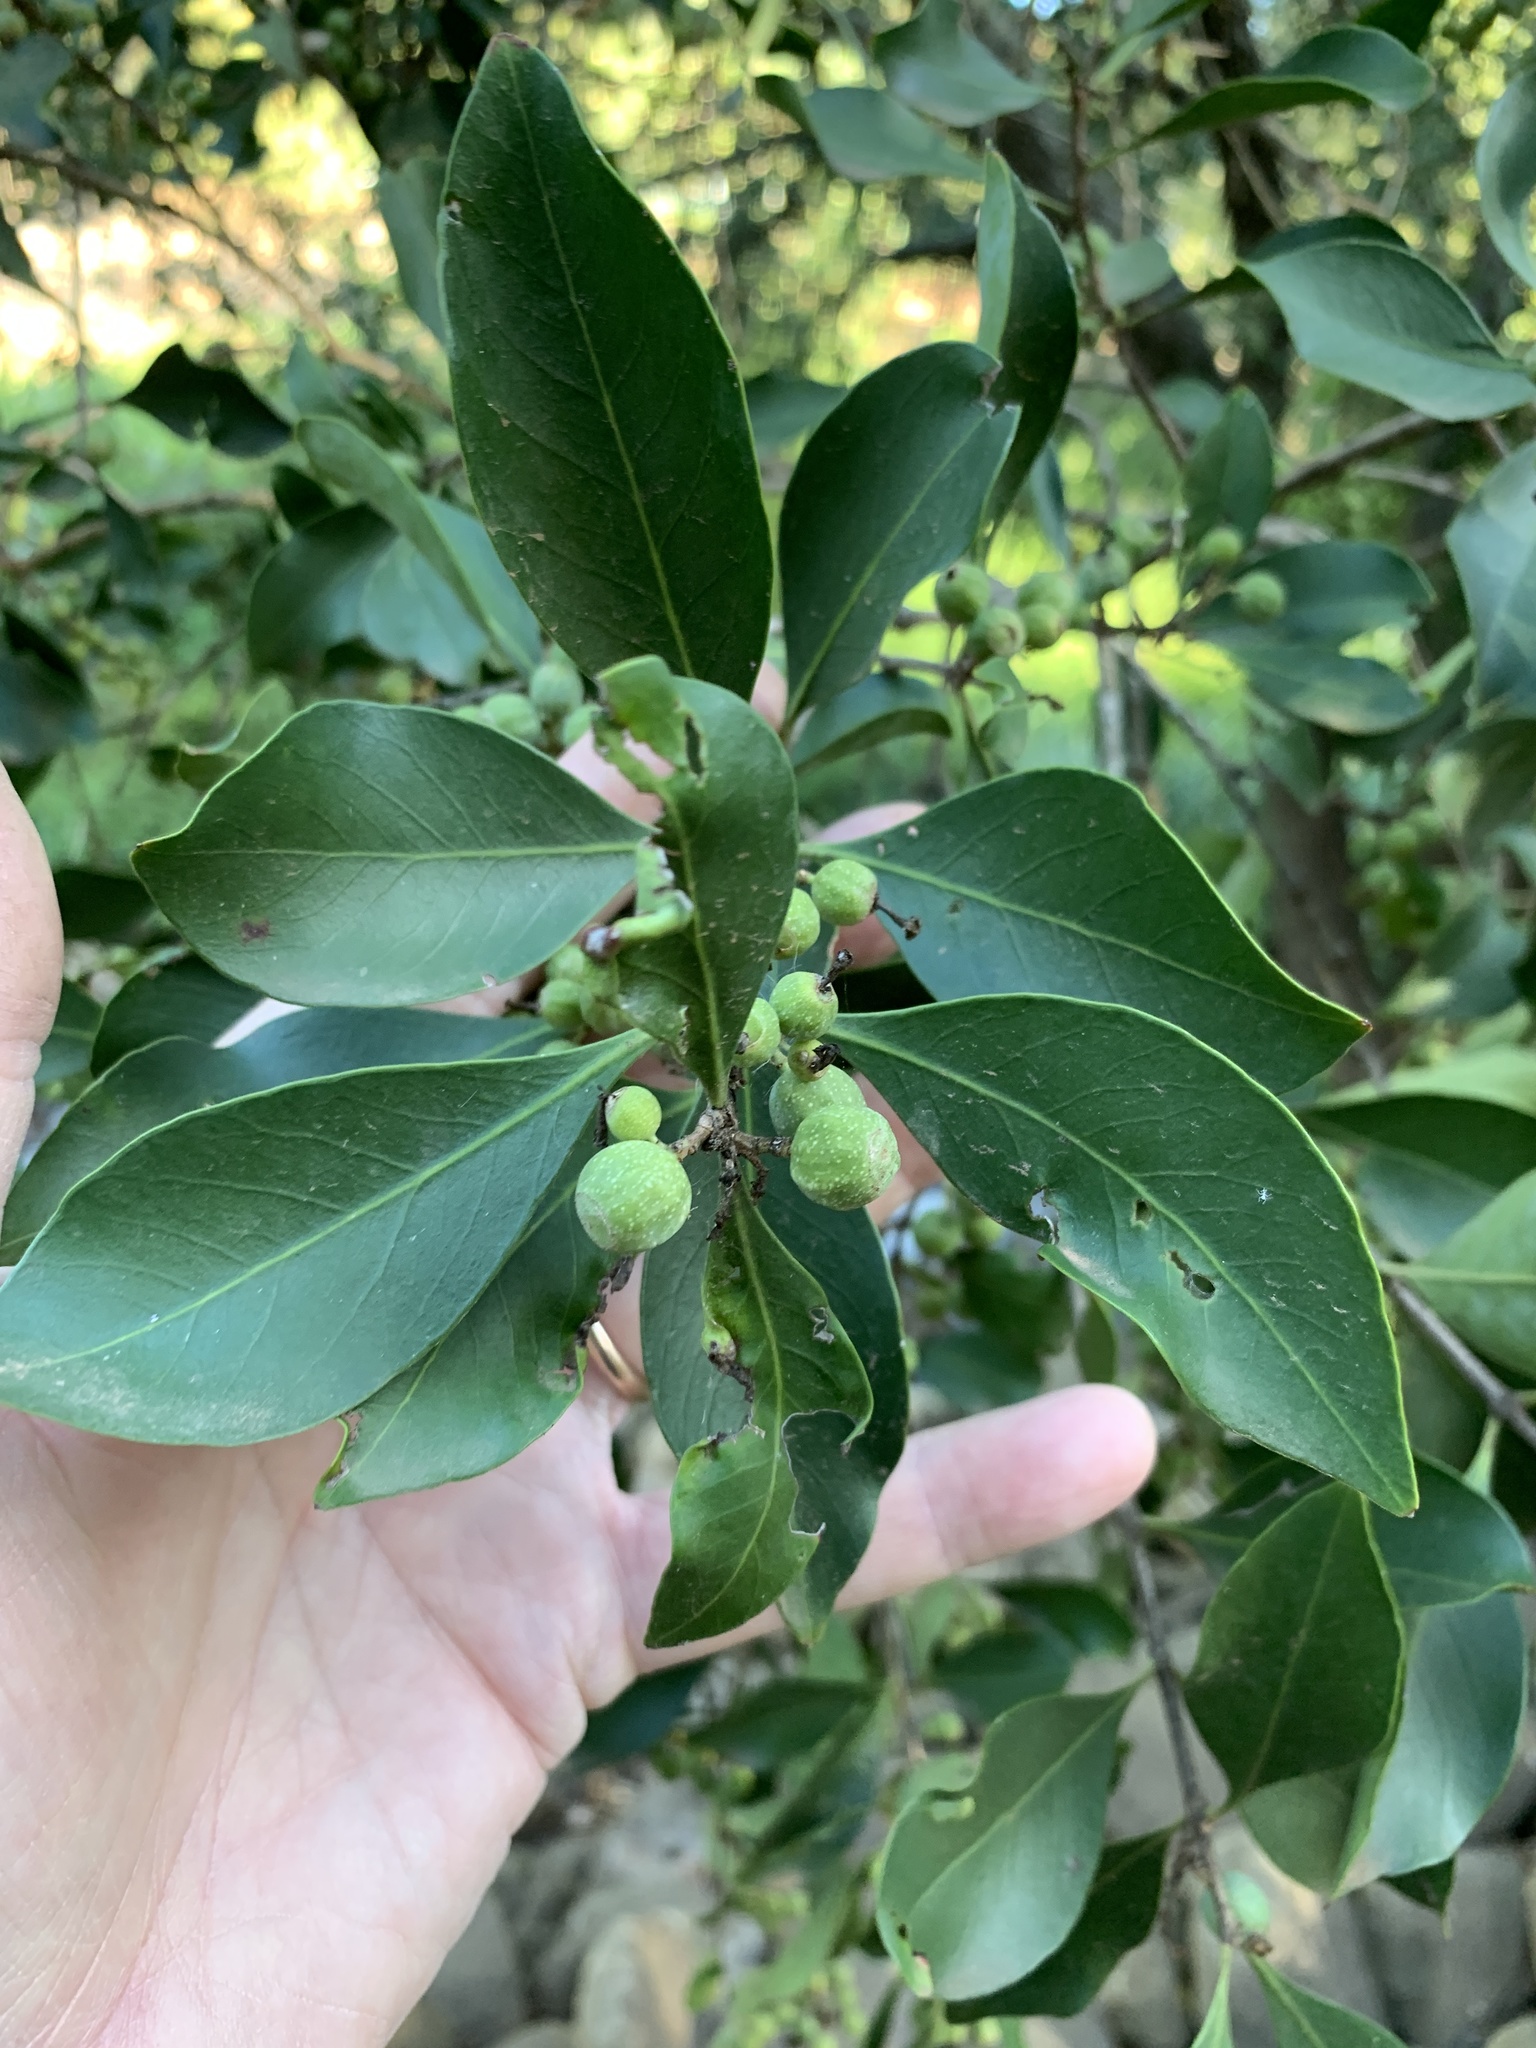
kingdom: Plantae
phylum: Tracheophyta
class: Magnoliopsida
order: Myrtales
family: Penaeaceae
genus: Olinia
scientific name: Olinia ventosa
